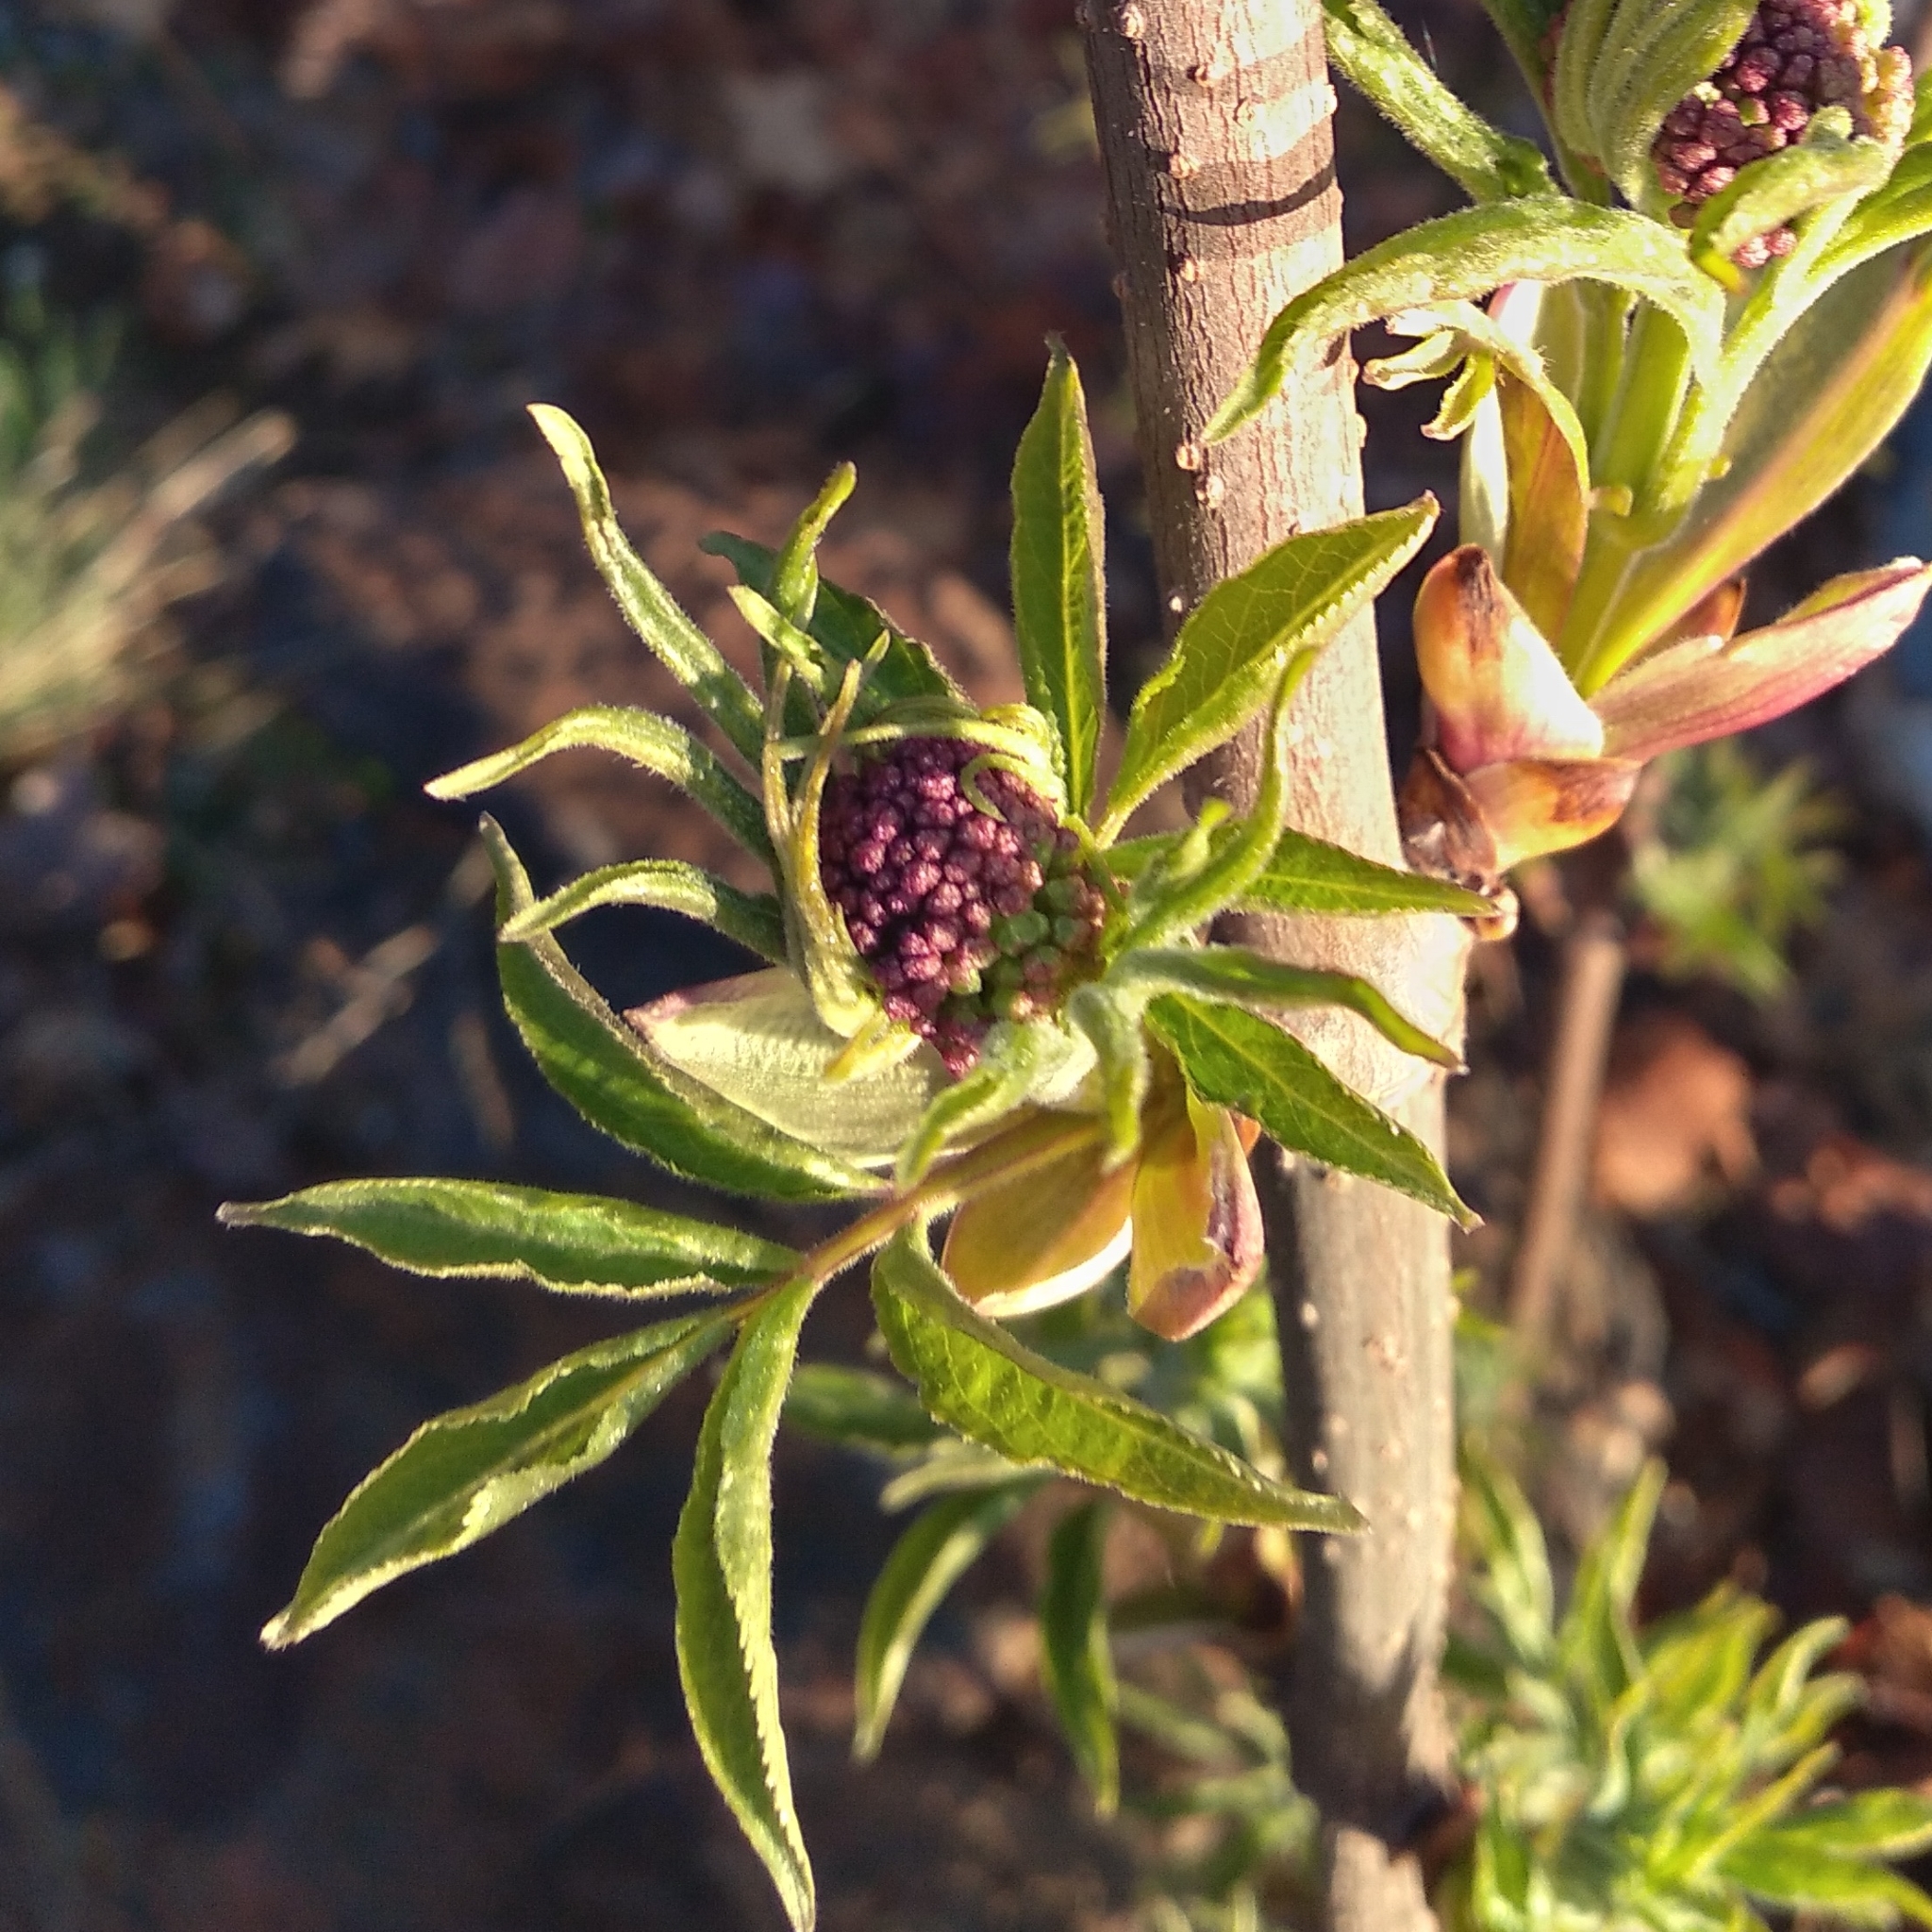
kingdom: Plantae
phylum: Tracheophyta
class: Magnoliopsida
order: Dipsacales
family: Viburnaceae
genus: Sambucus
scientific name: Sambucus racemosa
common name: Red-berried elder
